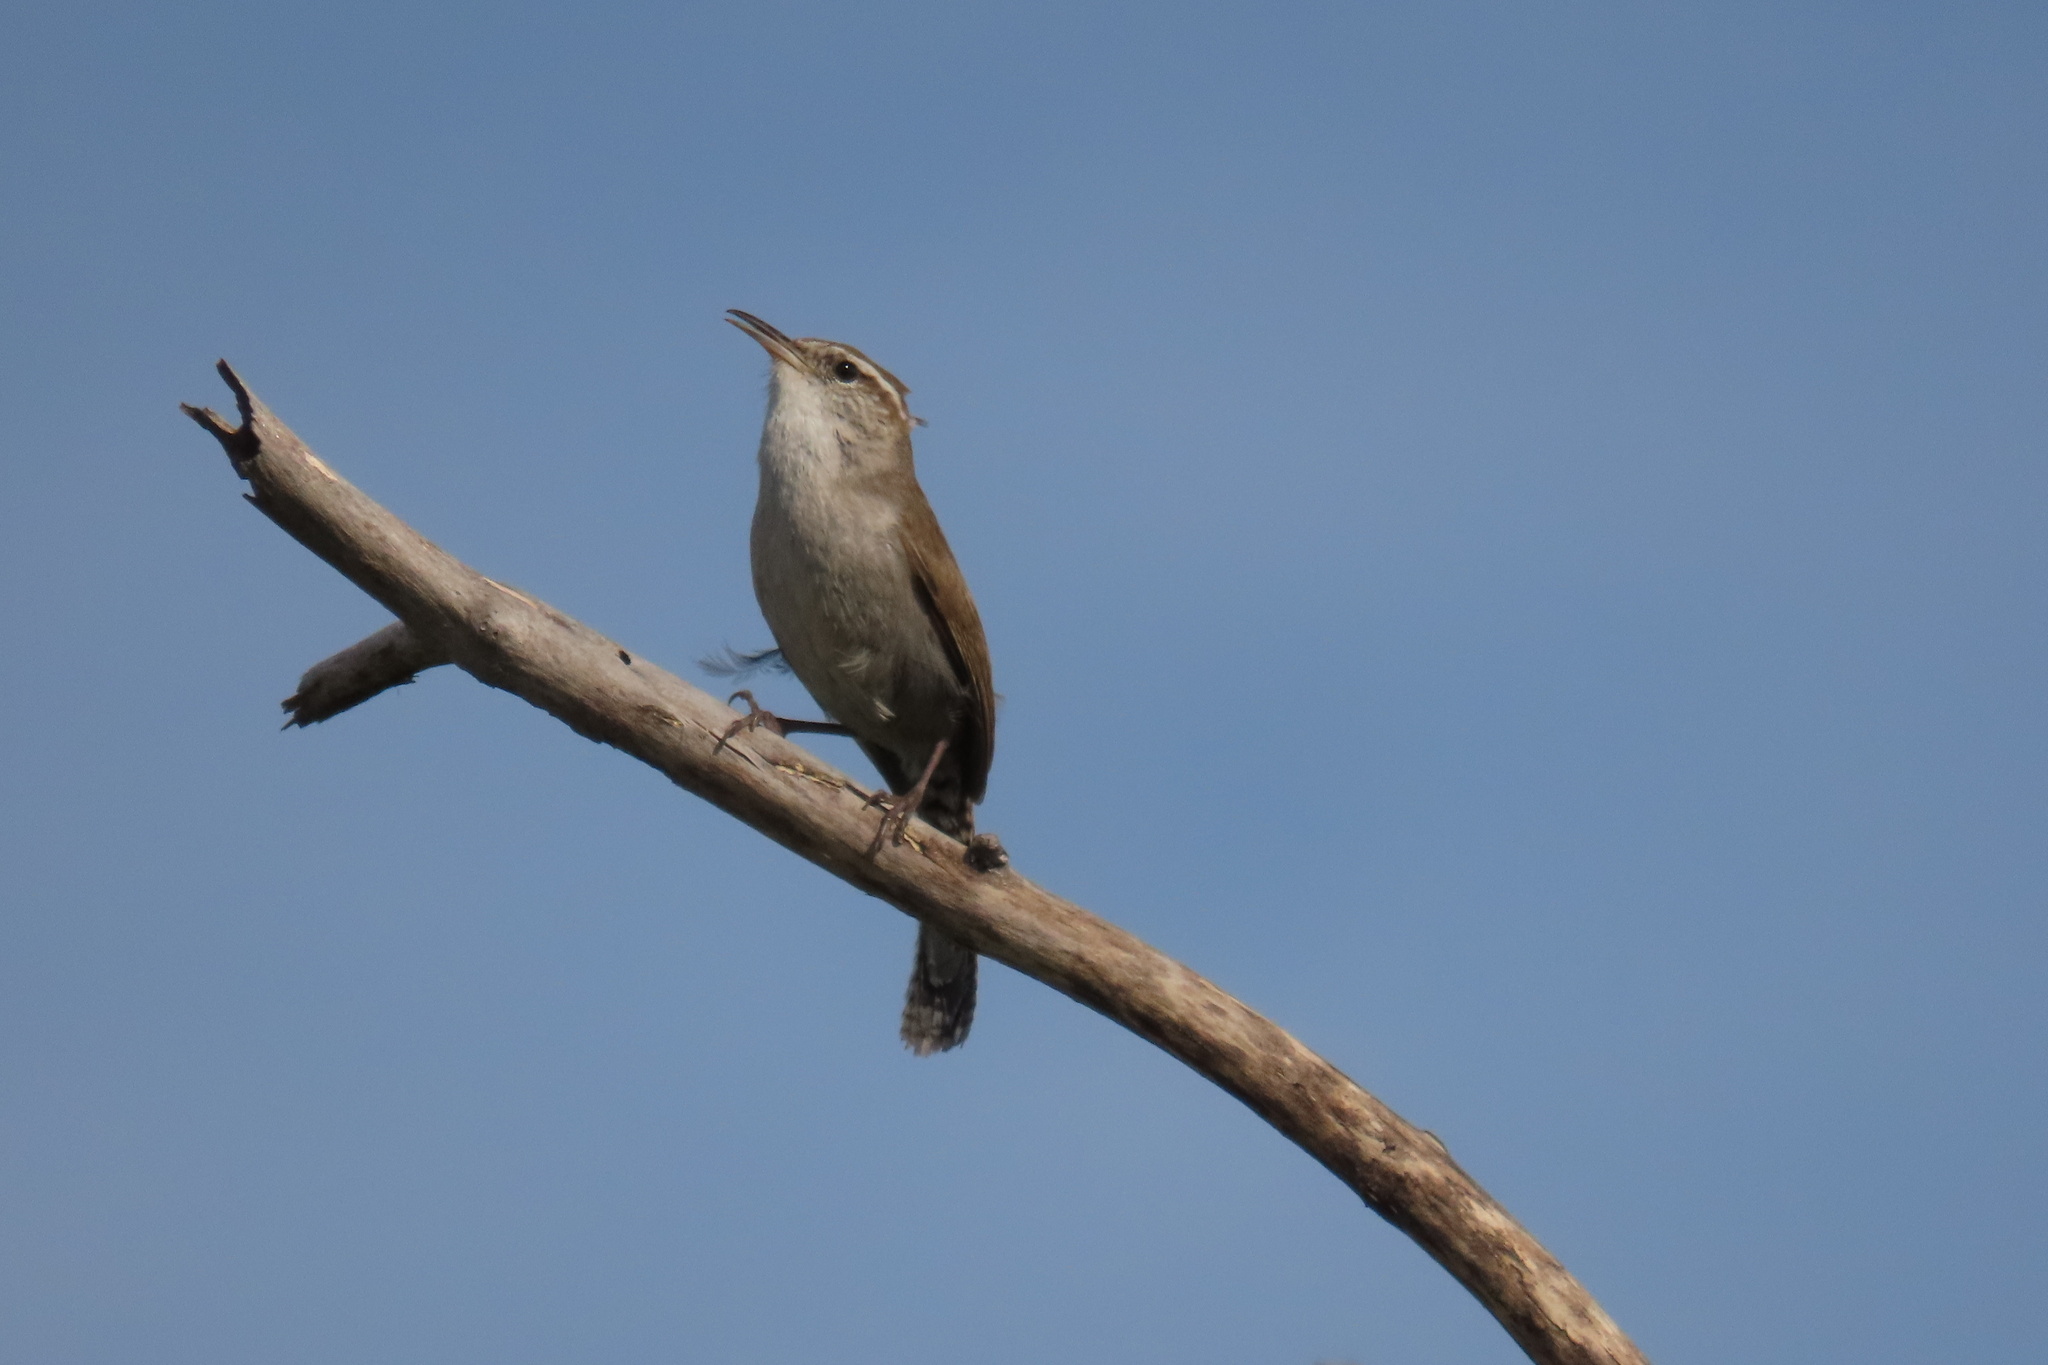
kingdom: Animalia
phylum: Chordata
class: Aves
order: Passeriformes
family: Troglodytidae
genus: Thryomanes
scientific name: Thryomanes bewickii
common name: Bewick's wren
